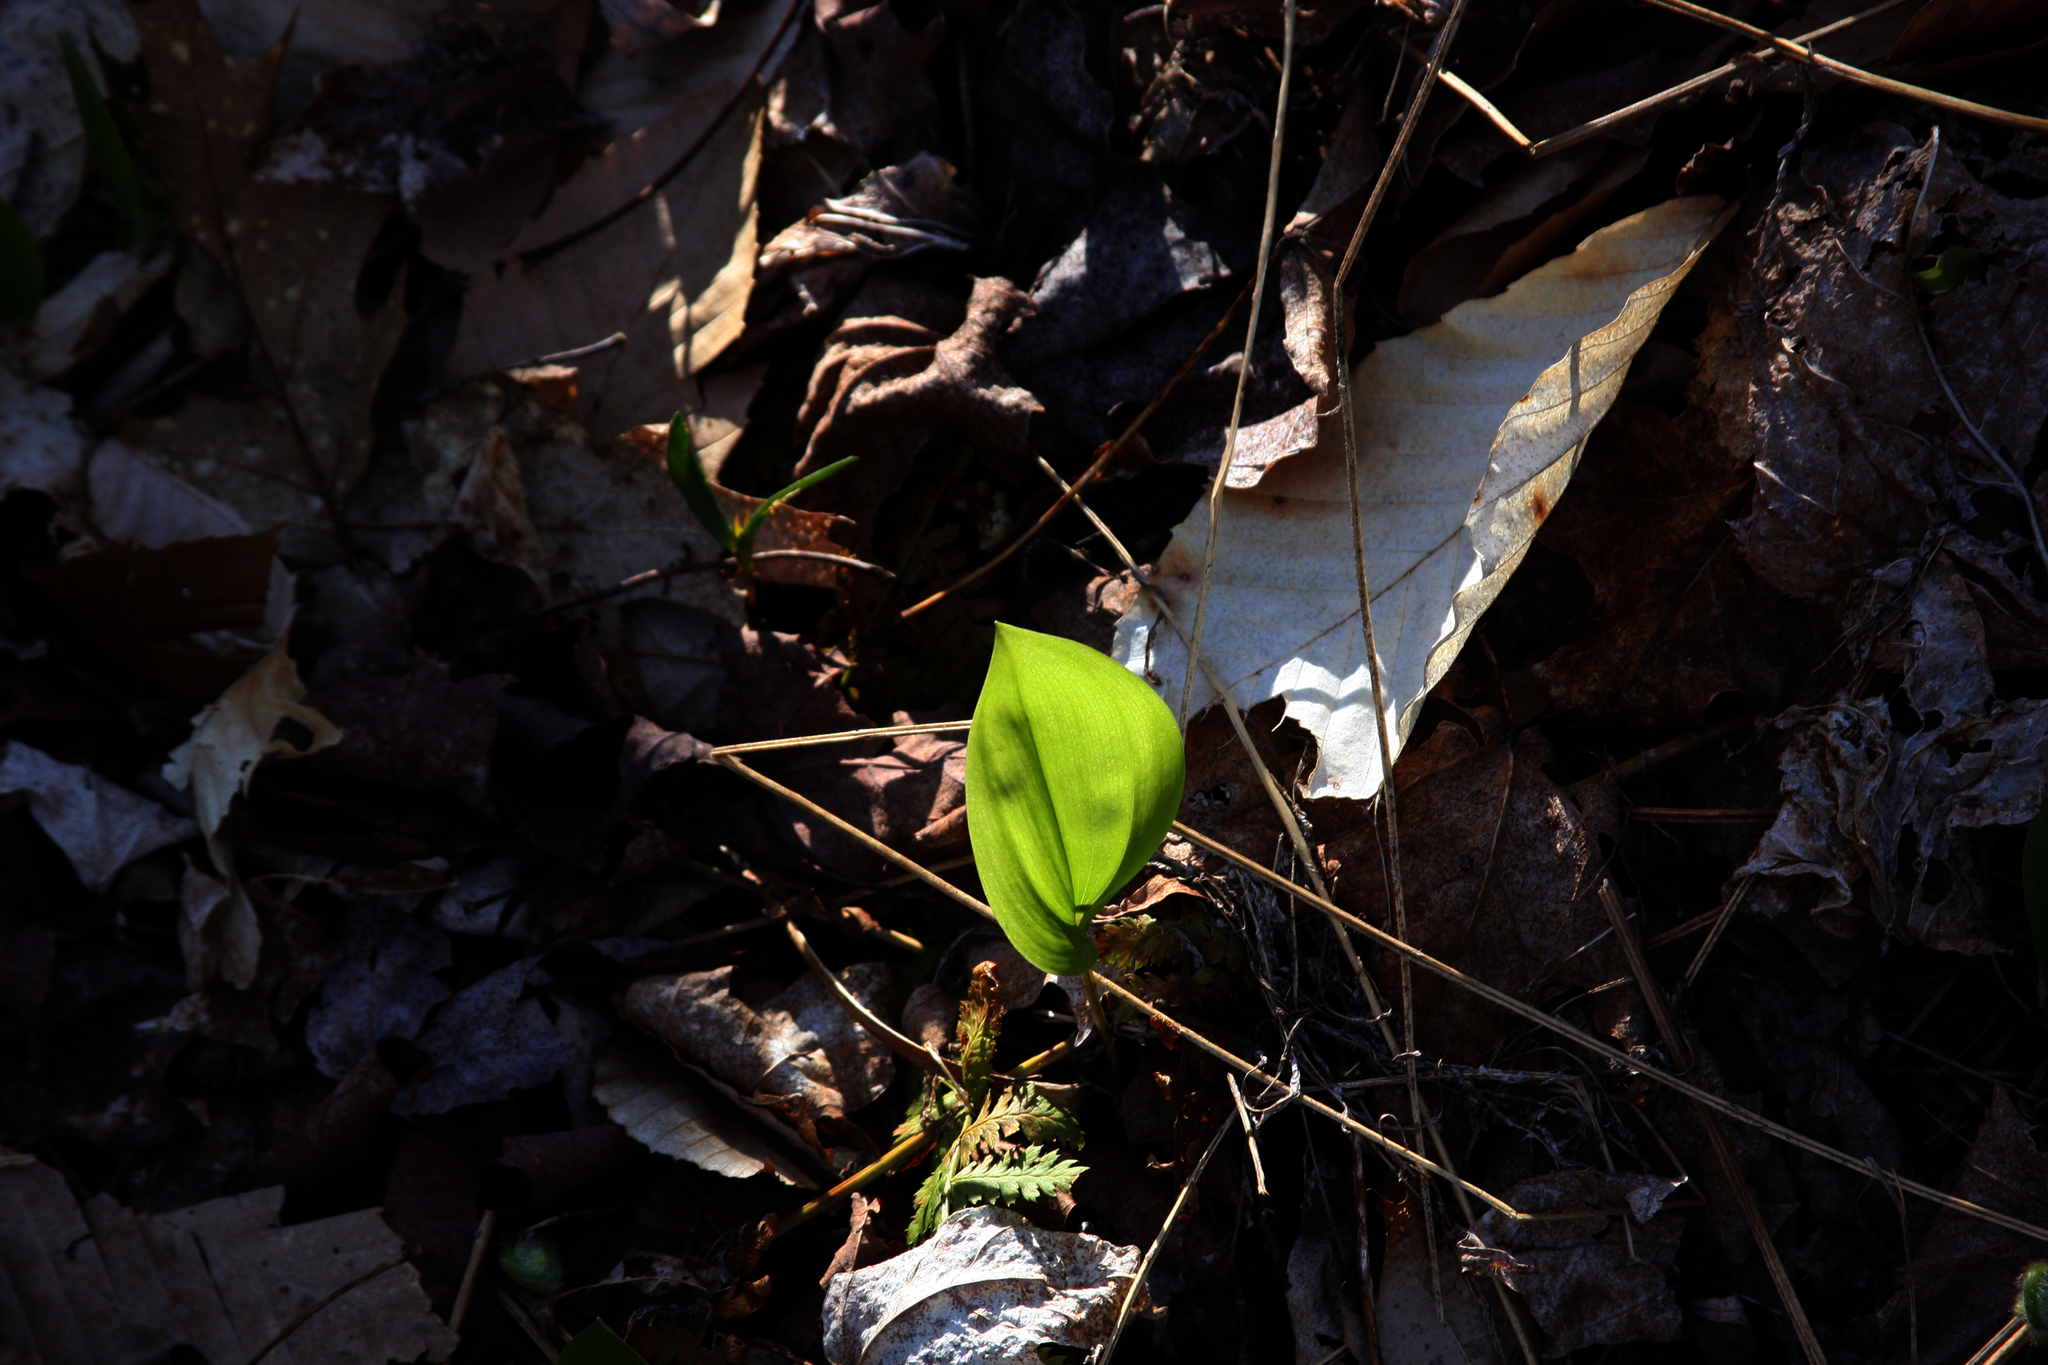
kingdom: Plantae
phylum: Tracheophyta
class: Liliopsida
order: Asparagales
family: Asparagaceae
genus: Maianthemum
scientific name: Maianthemum canadense
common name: False lily-of-the-valley
